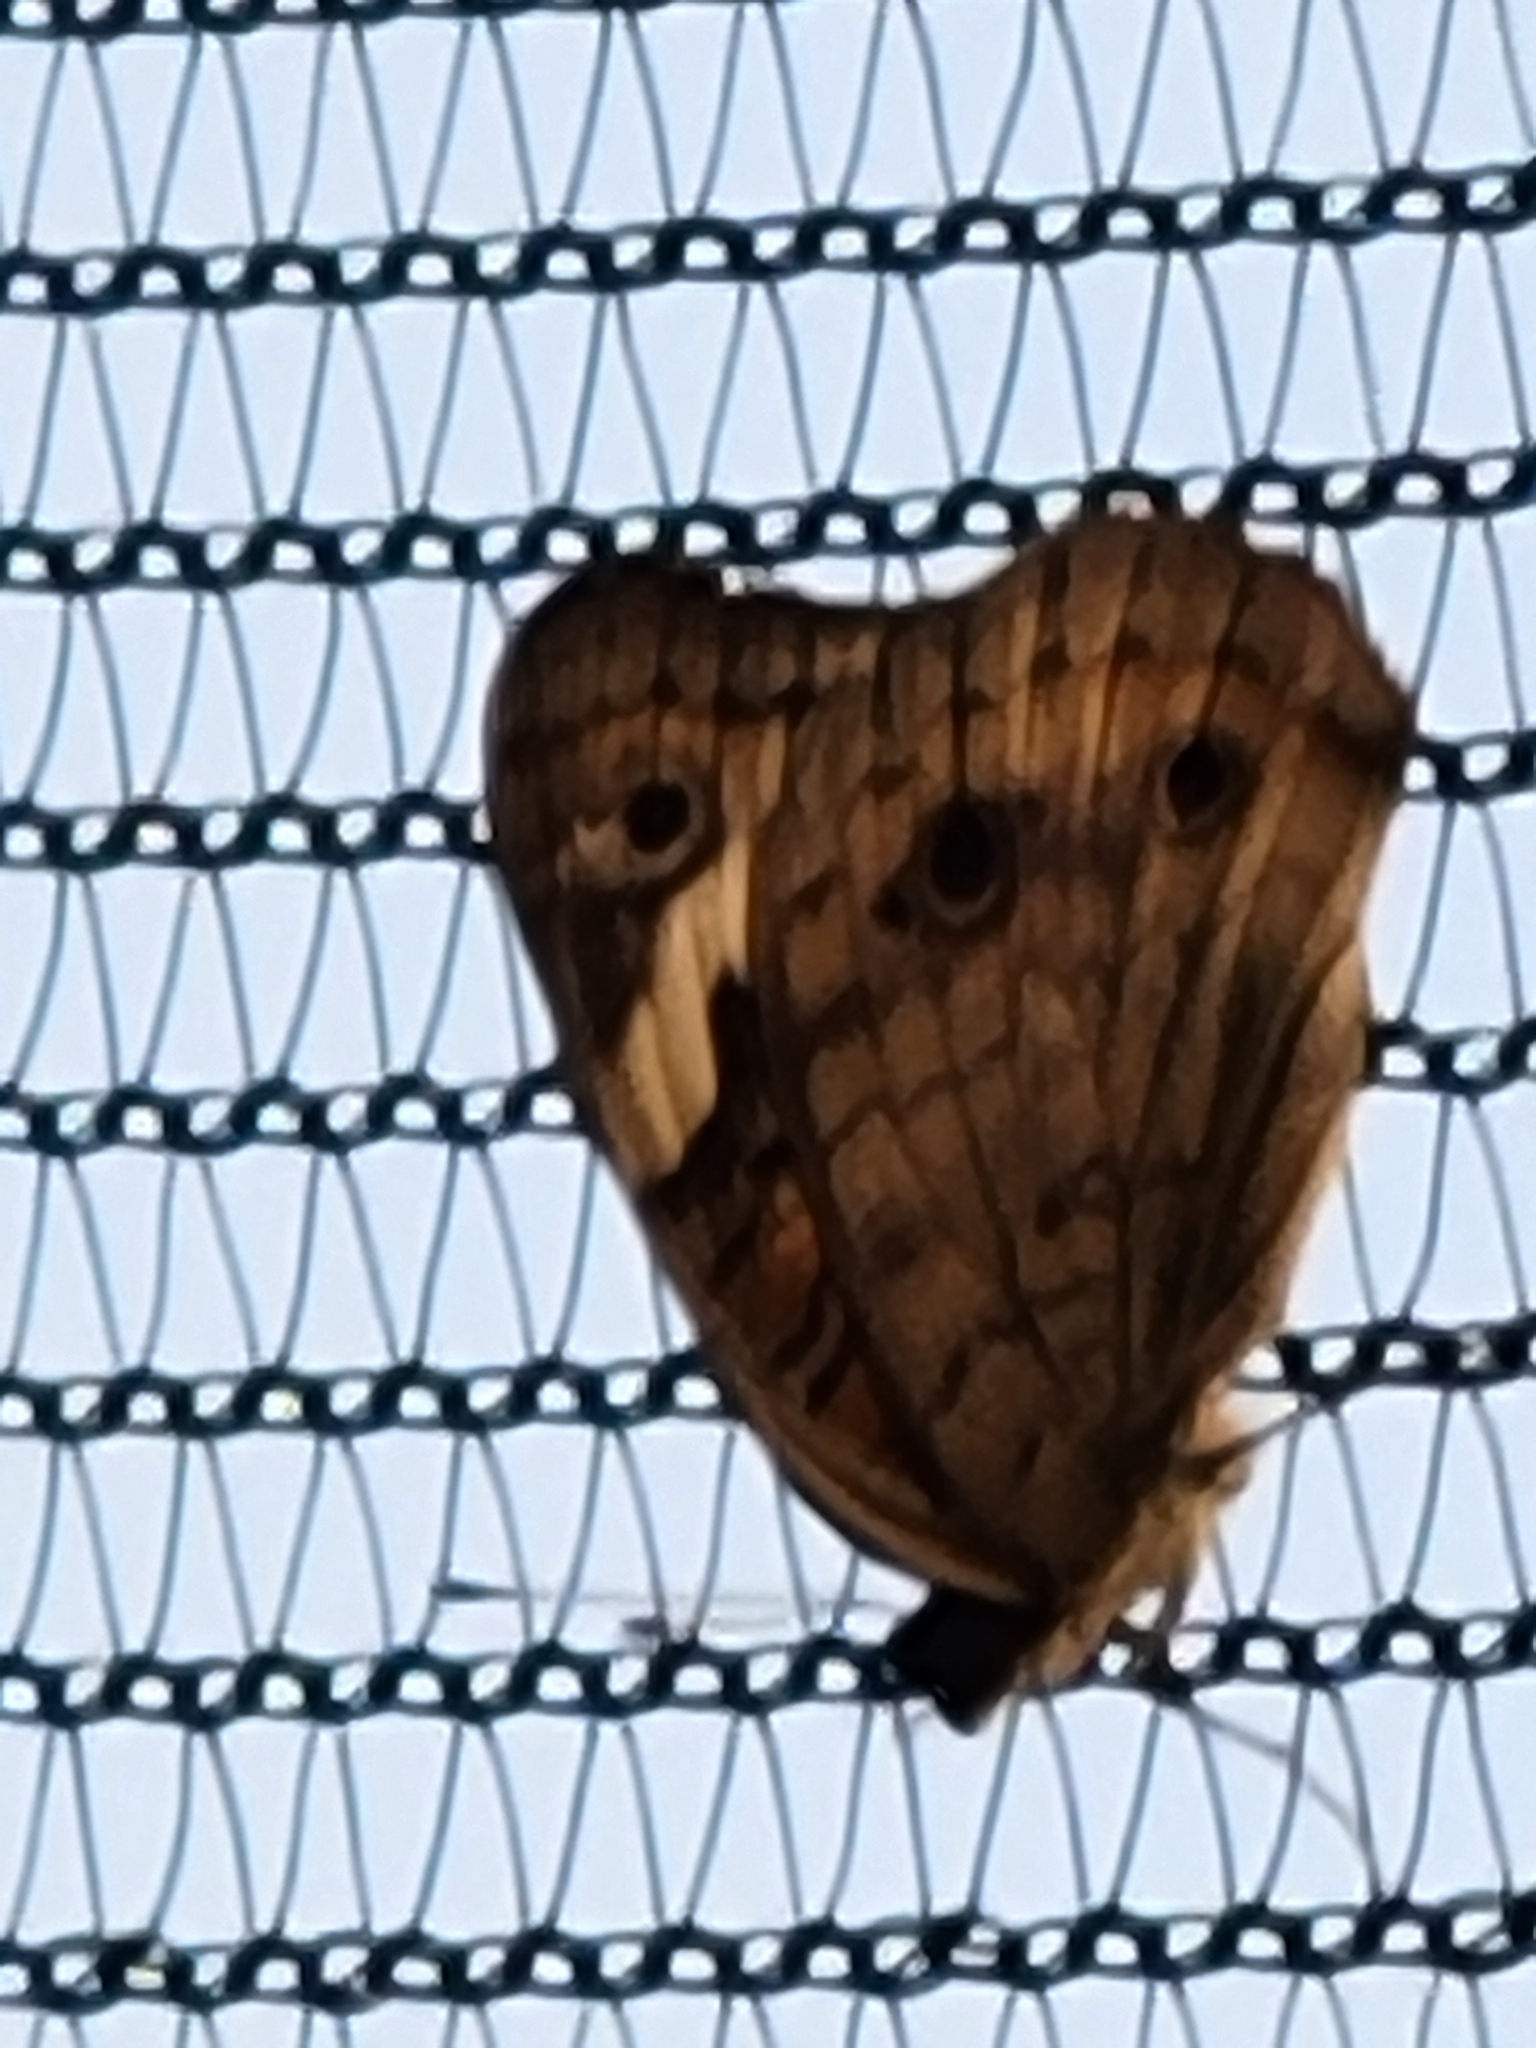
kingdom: Animalia
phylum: Arthropoda
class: Insecta
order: Lepidoptera
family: Nymphalidae
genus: Junonia
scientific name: Junonia coenia
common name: Common buckeye
